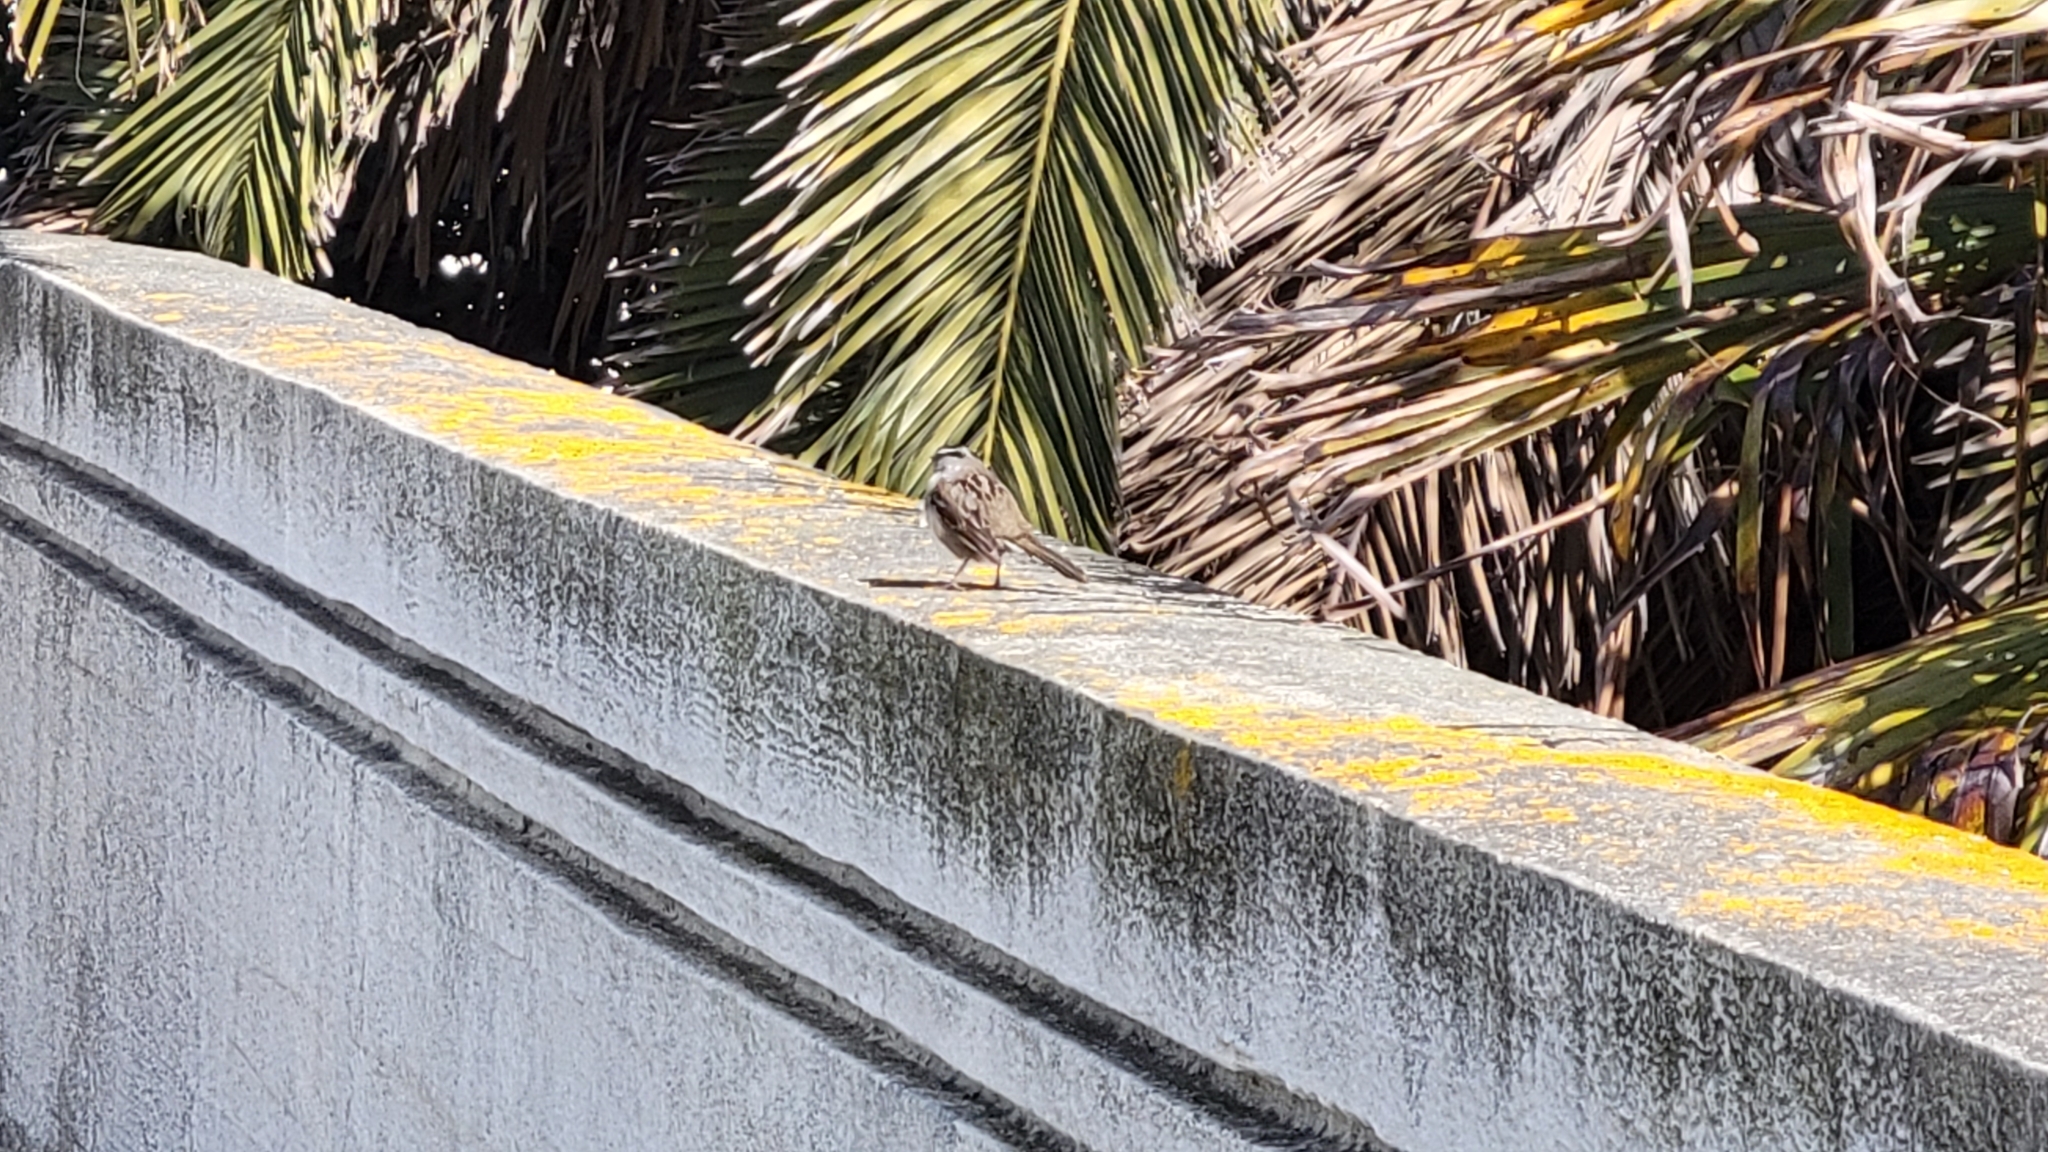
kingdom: Animalia
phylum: Chordata
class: Aves
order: Passeriformes
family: Passerellidae
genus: Zonotrichia
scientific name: Zonotrichia leucophrys
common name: White-crowned sparrow
